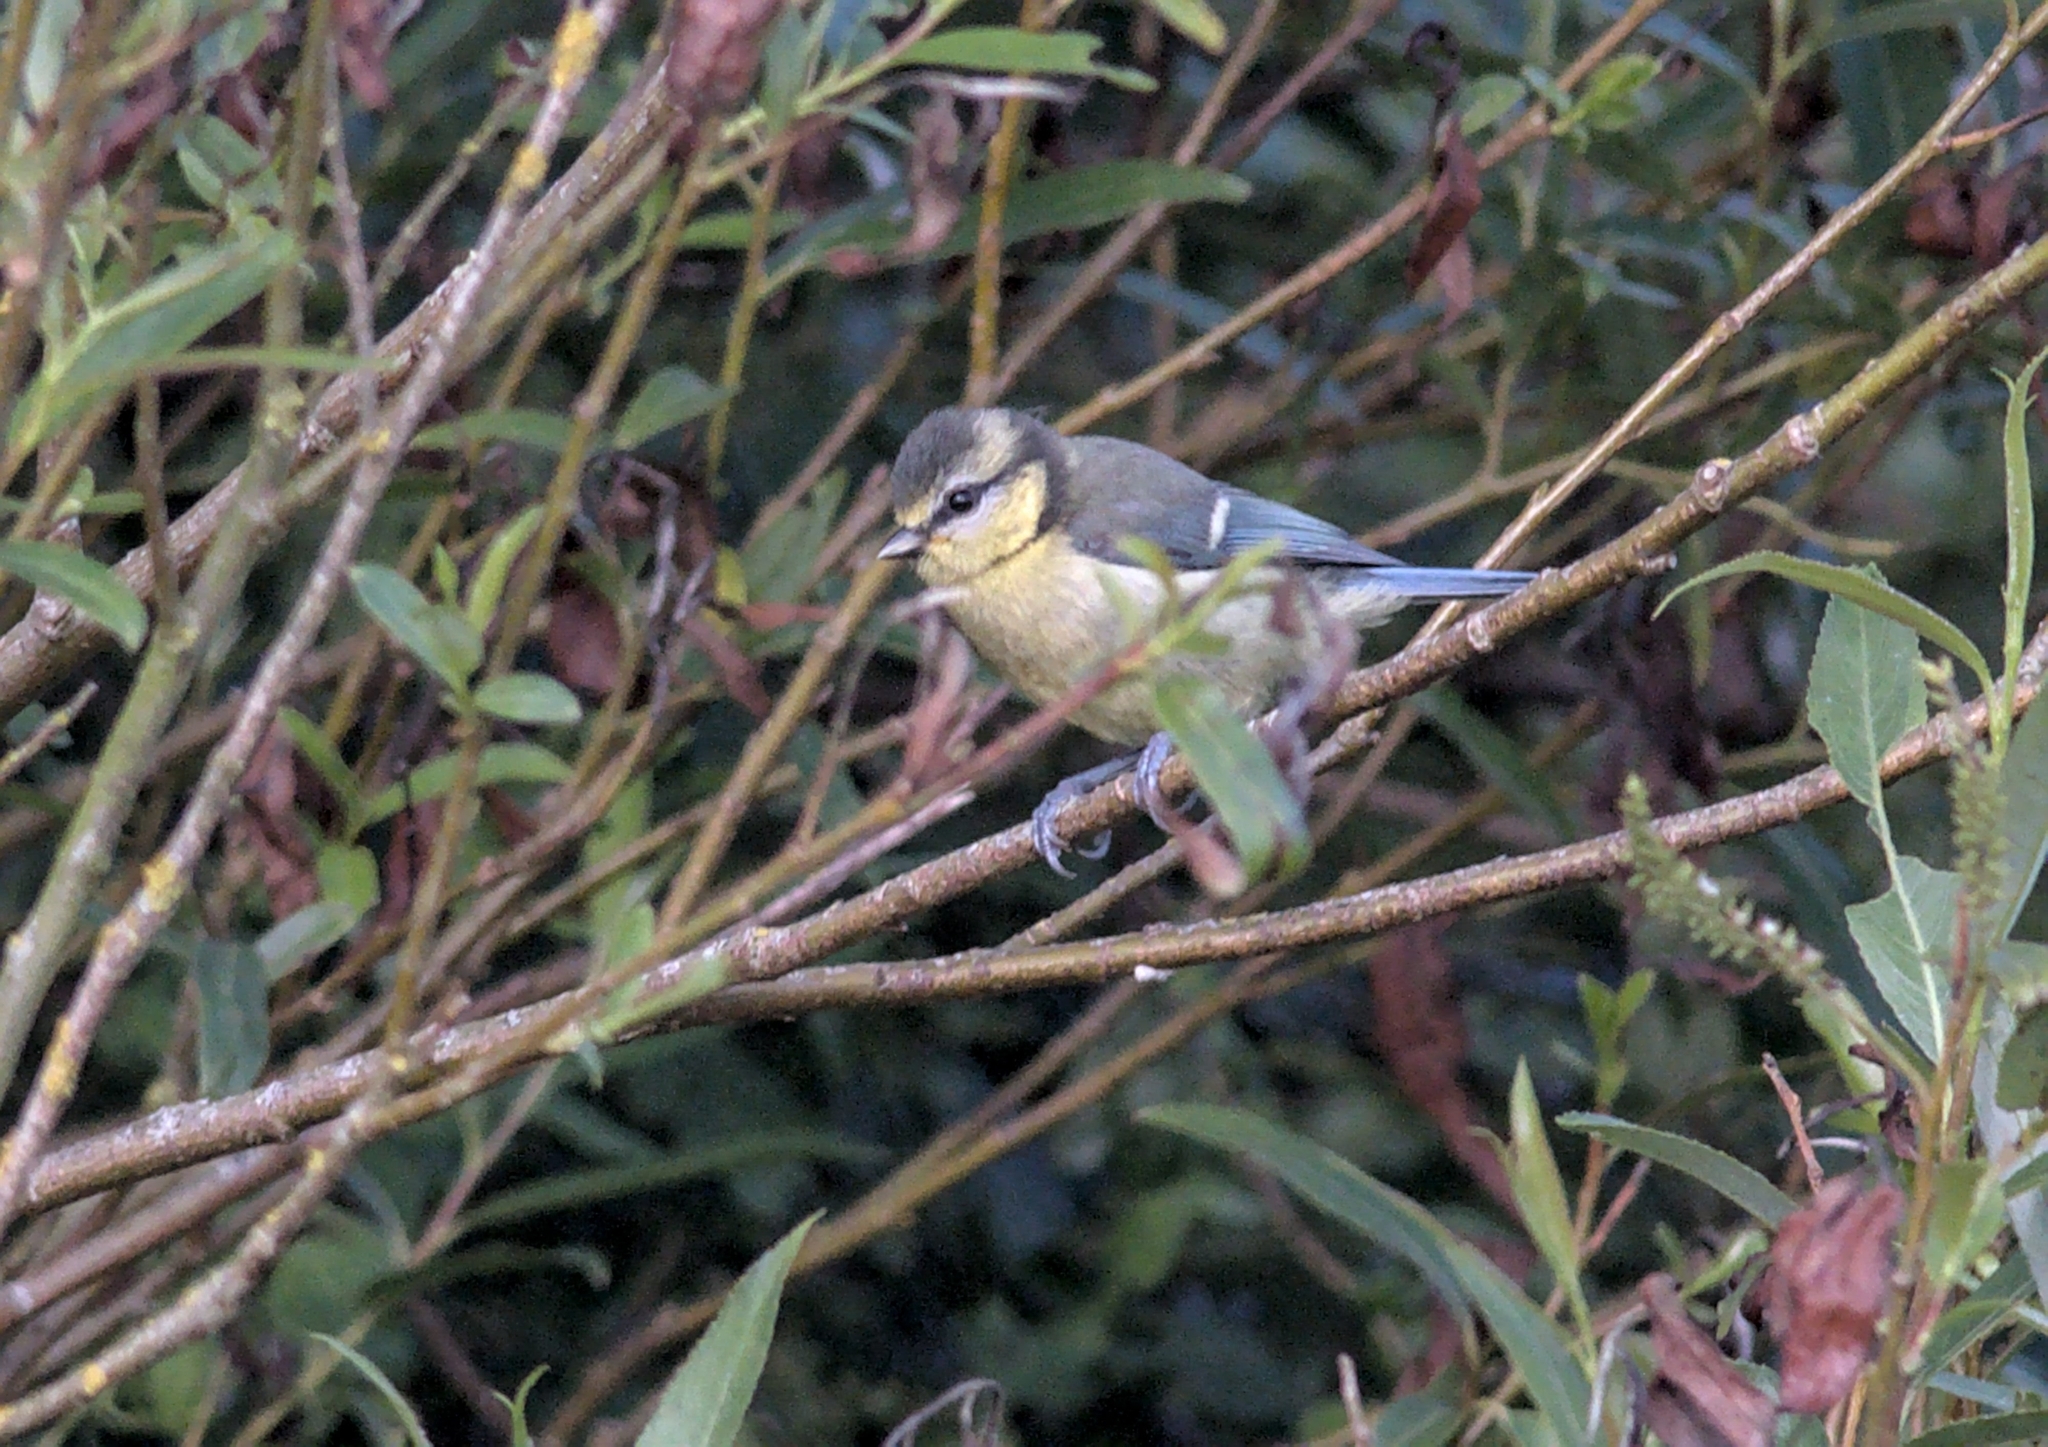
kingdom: Animalia
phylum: Chordata
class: Aves
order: Passeriformes
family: Paridae
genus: Cyanistes
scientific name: Cyanistes caeruleus
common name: Eurasian blue tit
